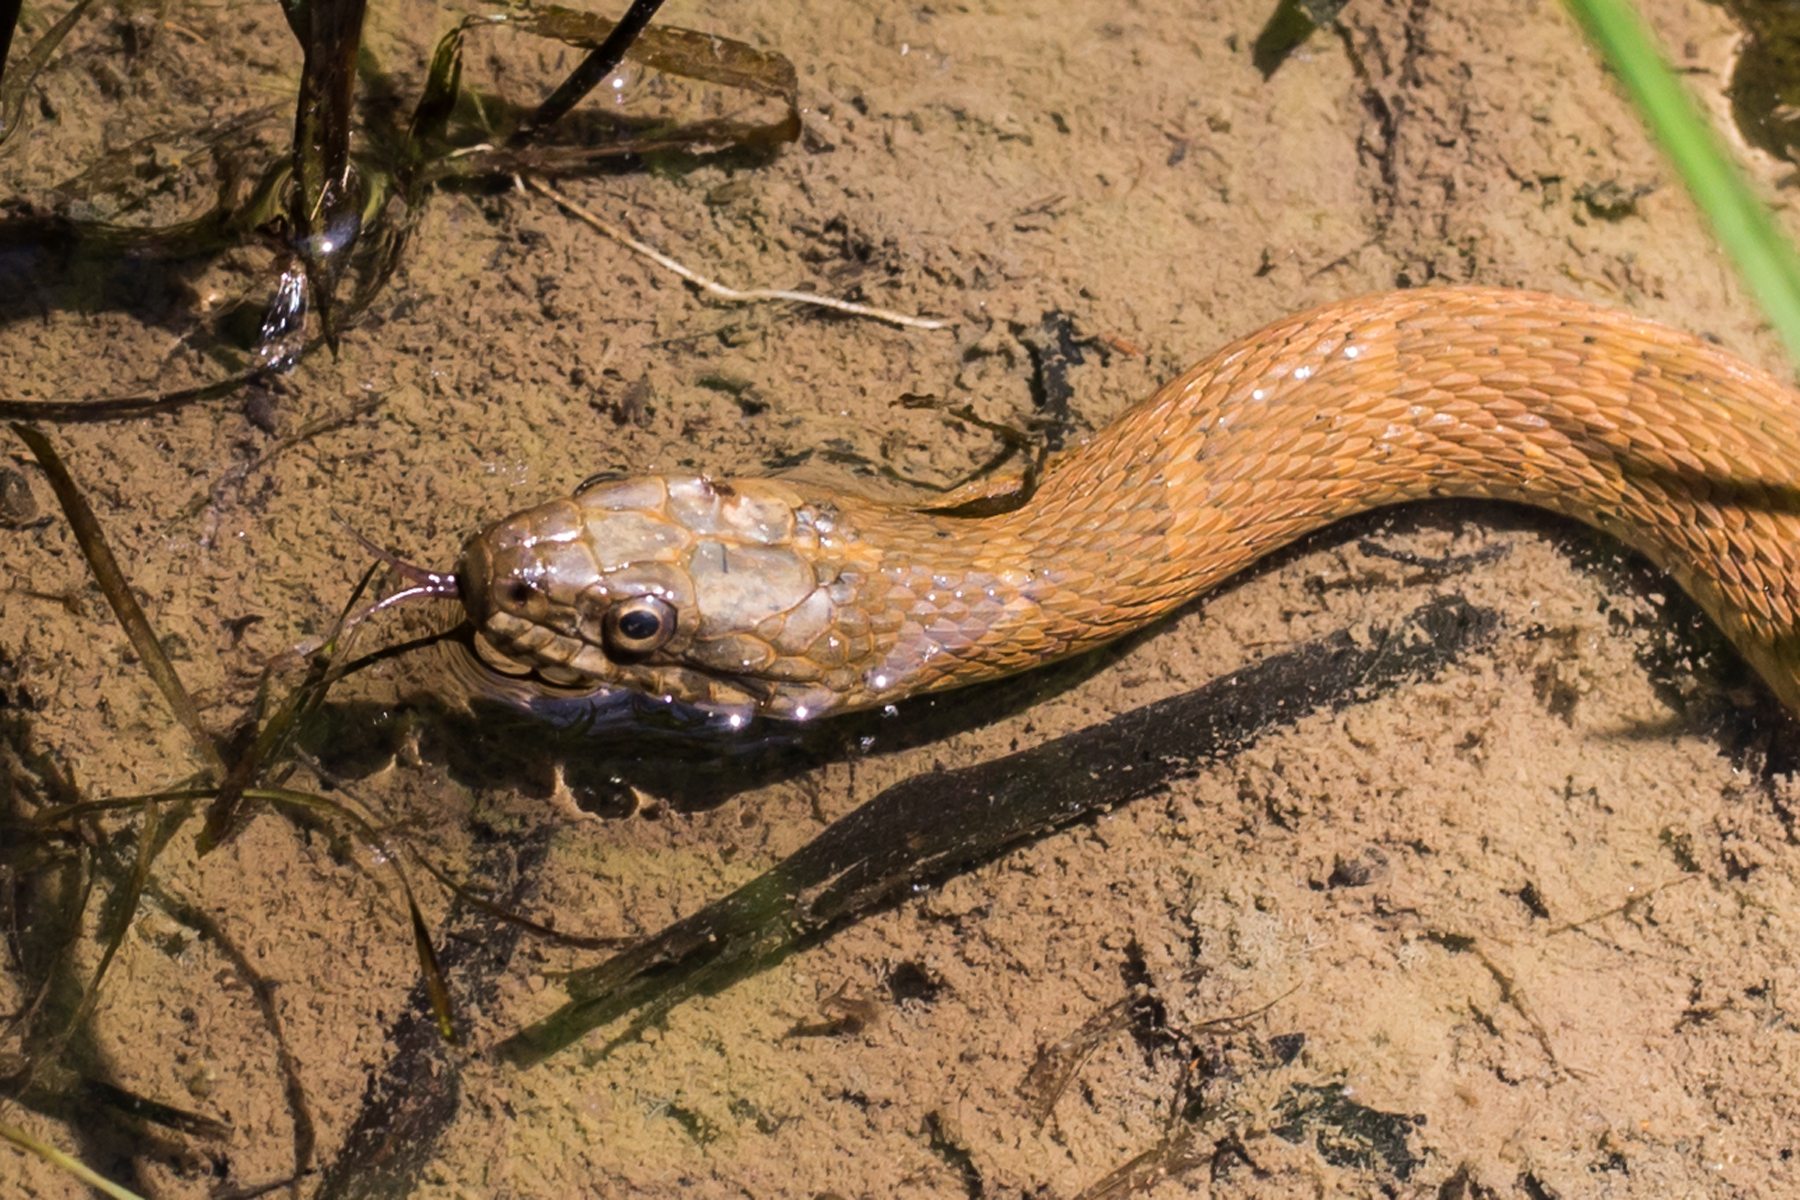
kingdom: Animalia
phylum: Chordata
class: Squamata
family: Colubridae
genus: Nerodia
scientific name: Nerodia sipedon
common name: Northern water snake
